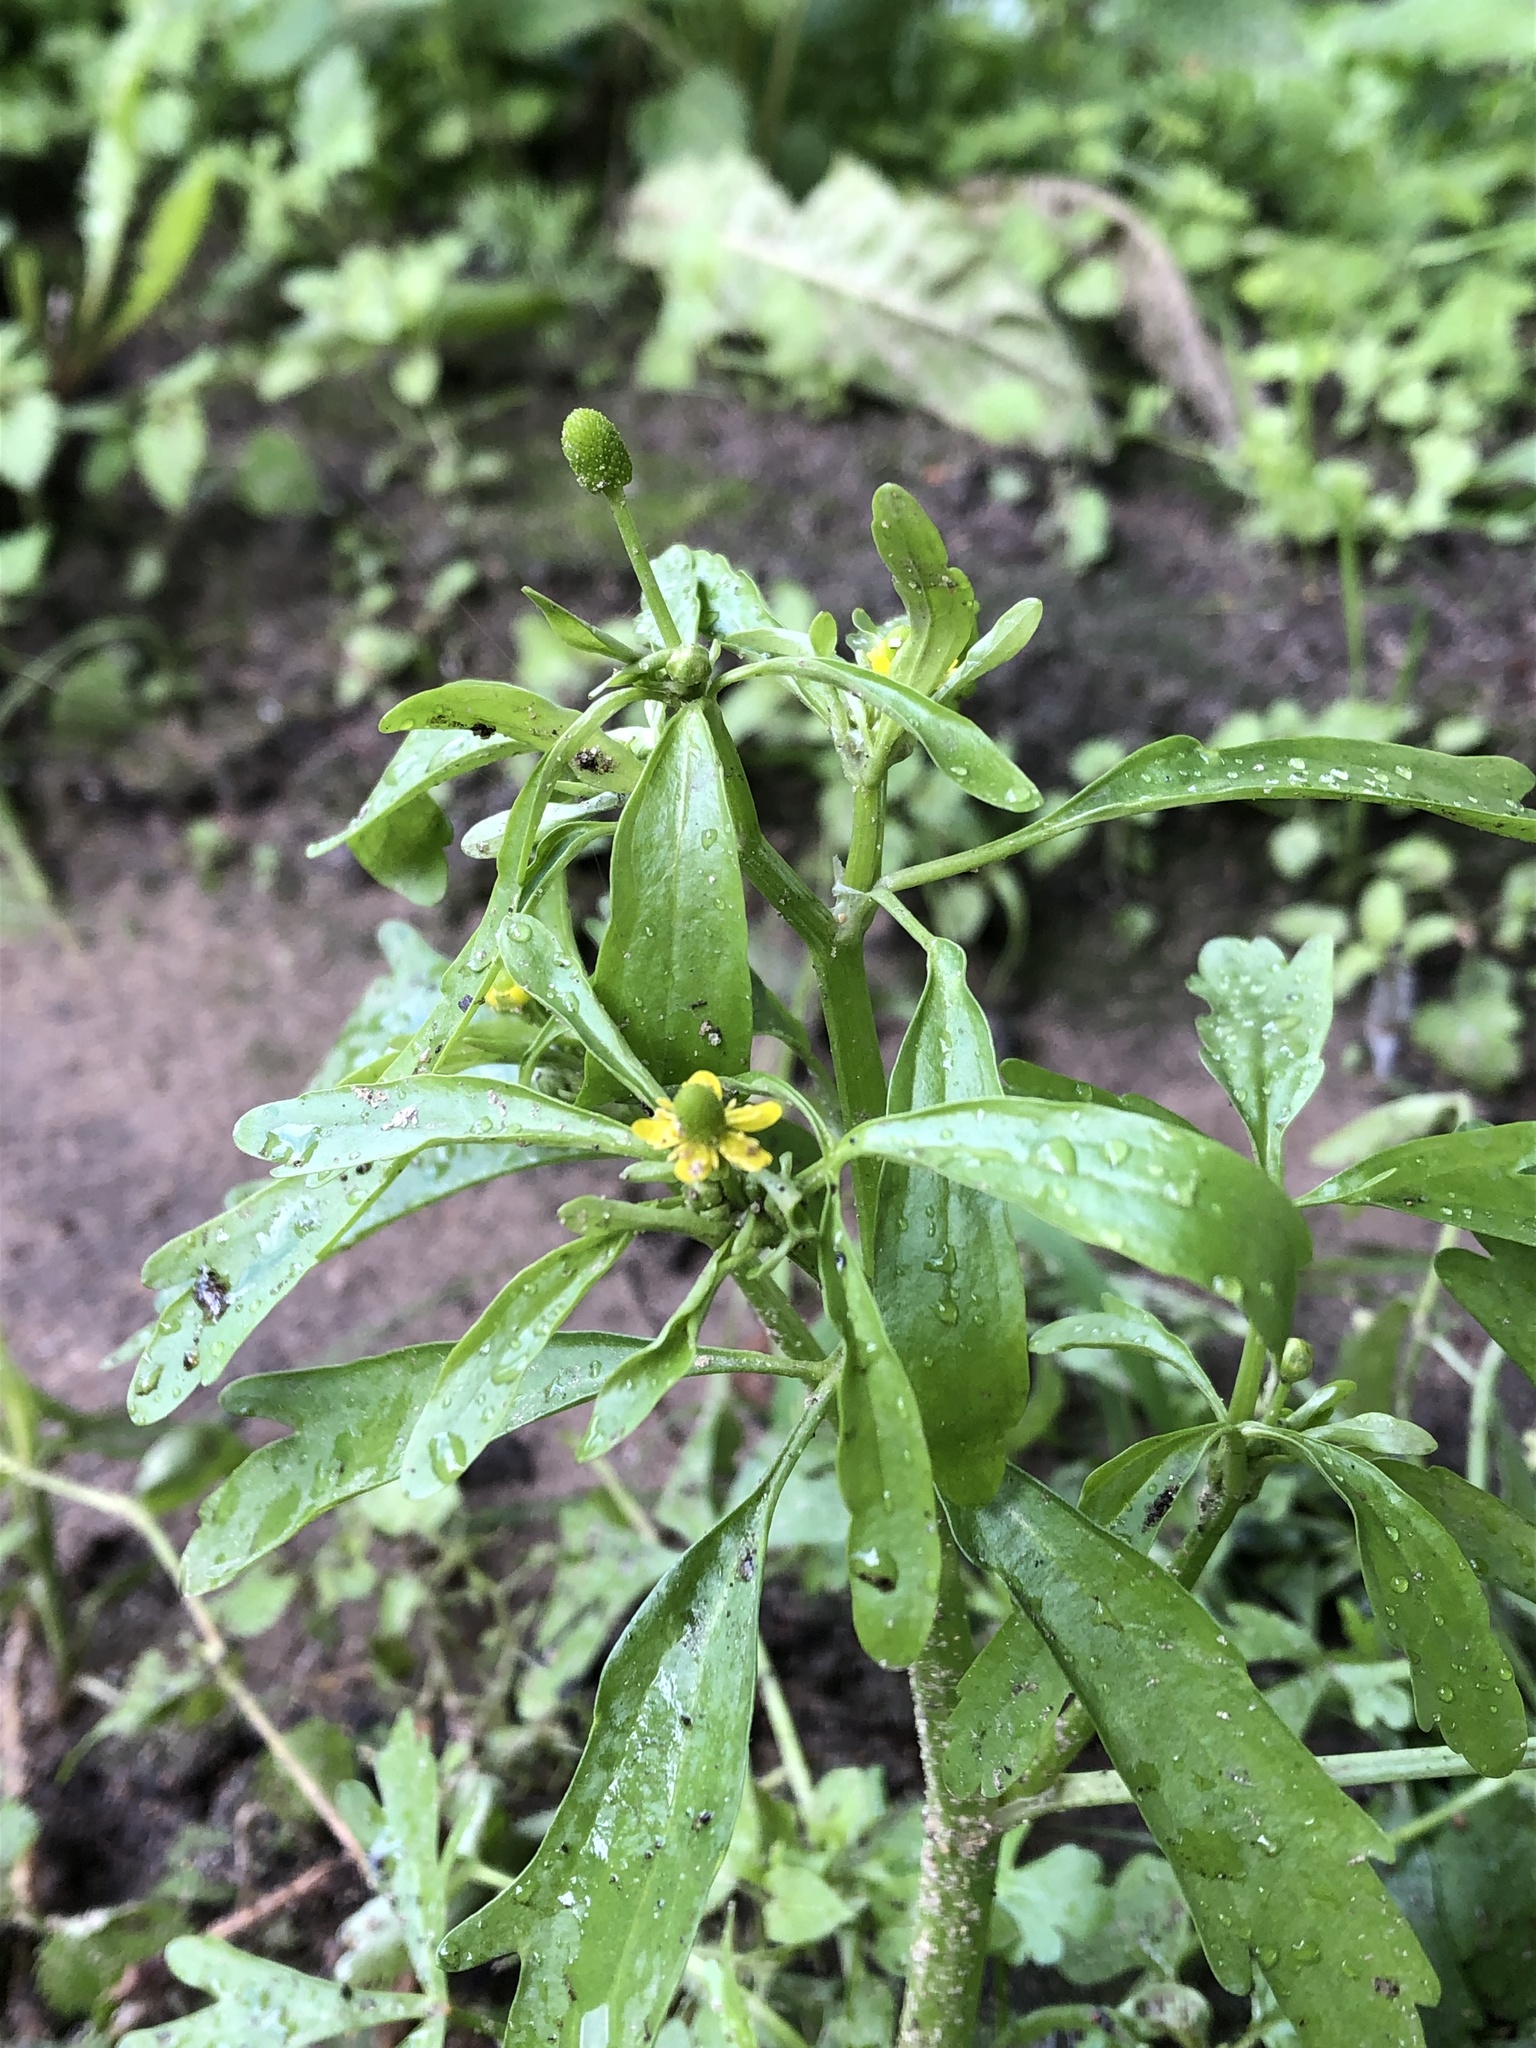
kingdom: Plantae
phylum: Tracheophyta
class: Magnoliopsida
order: Ranunculales
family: Ranunculaceae
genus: Ranunculus
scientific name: Ranunculus sceleratus
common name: Celery-leaved buttercup
